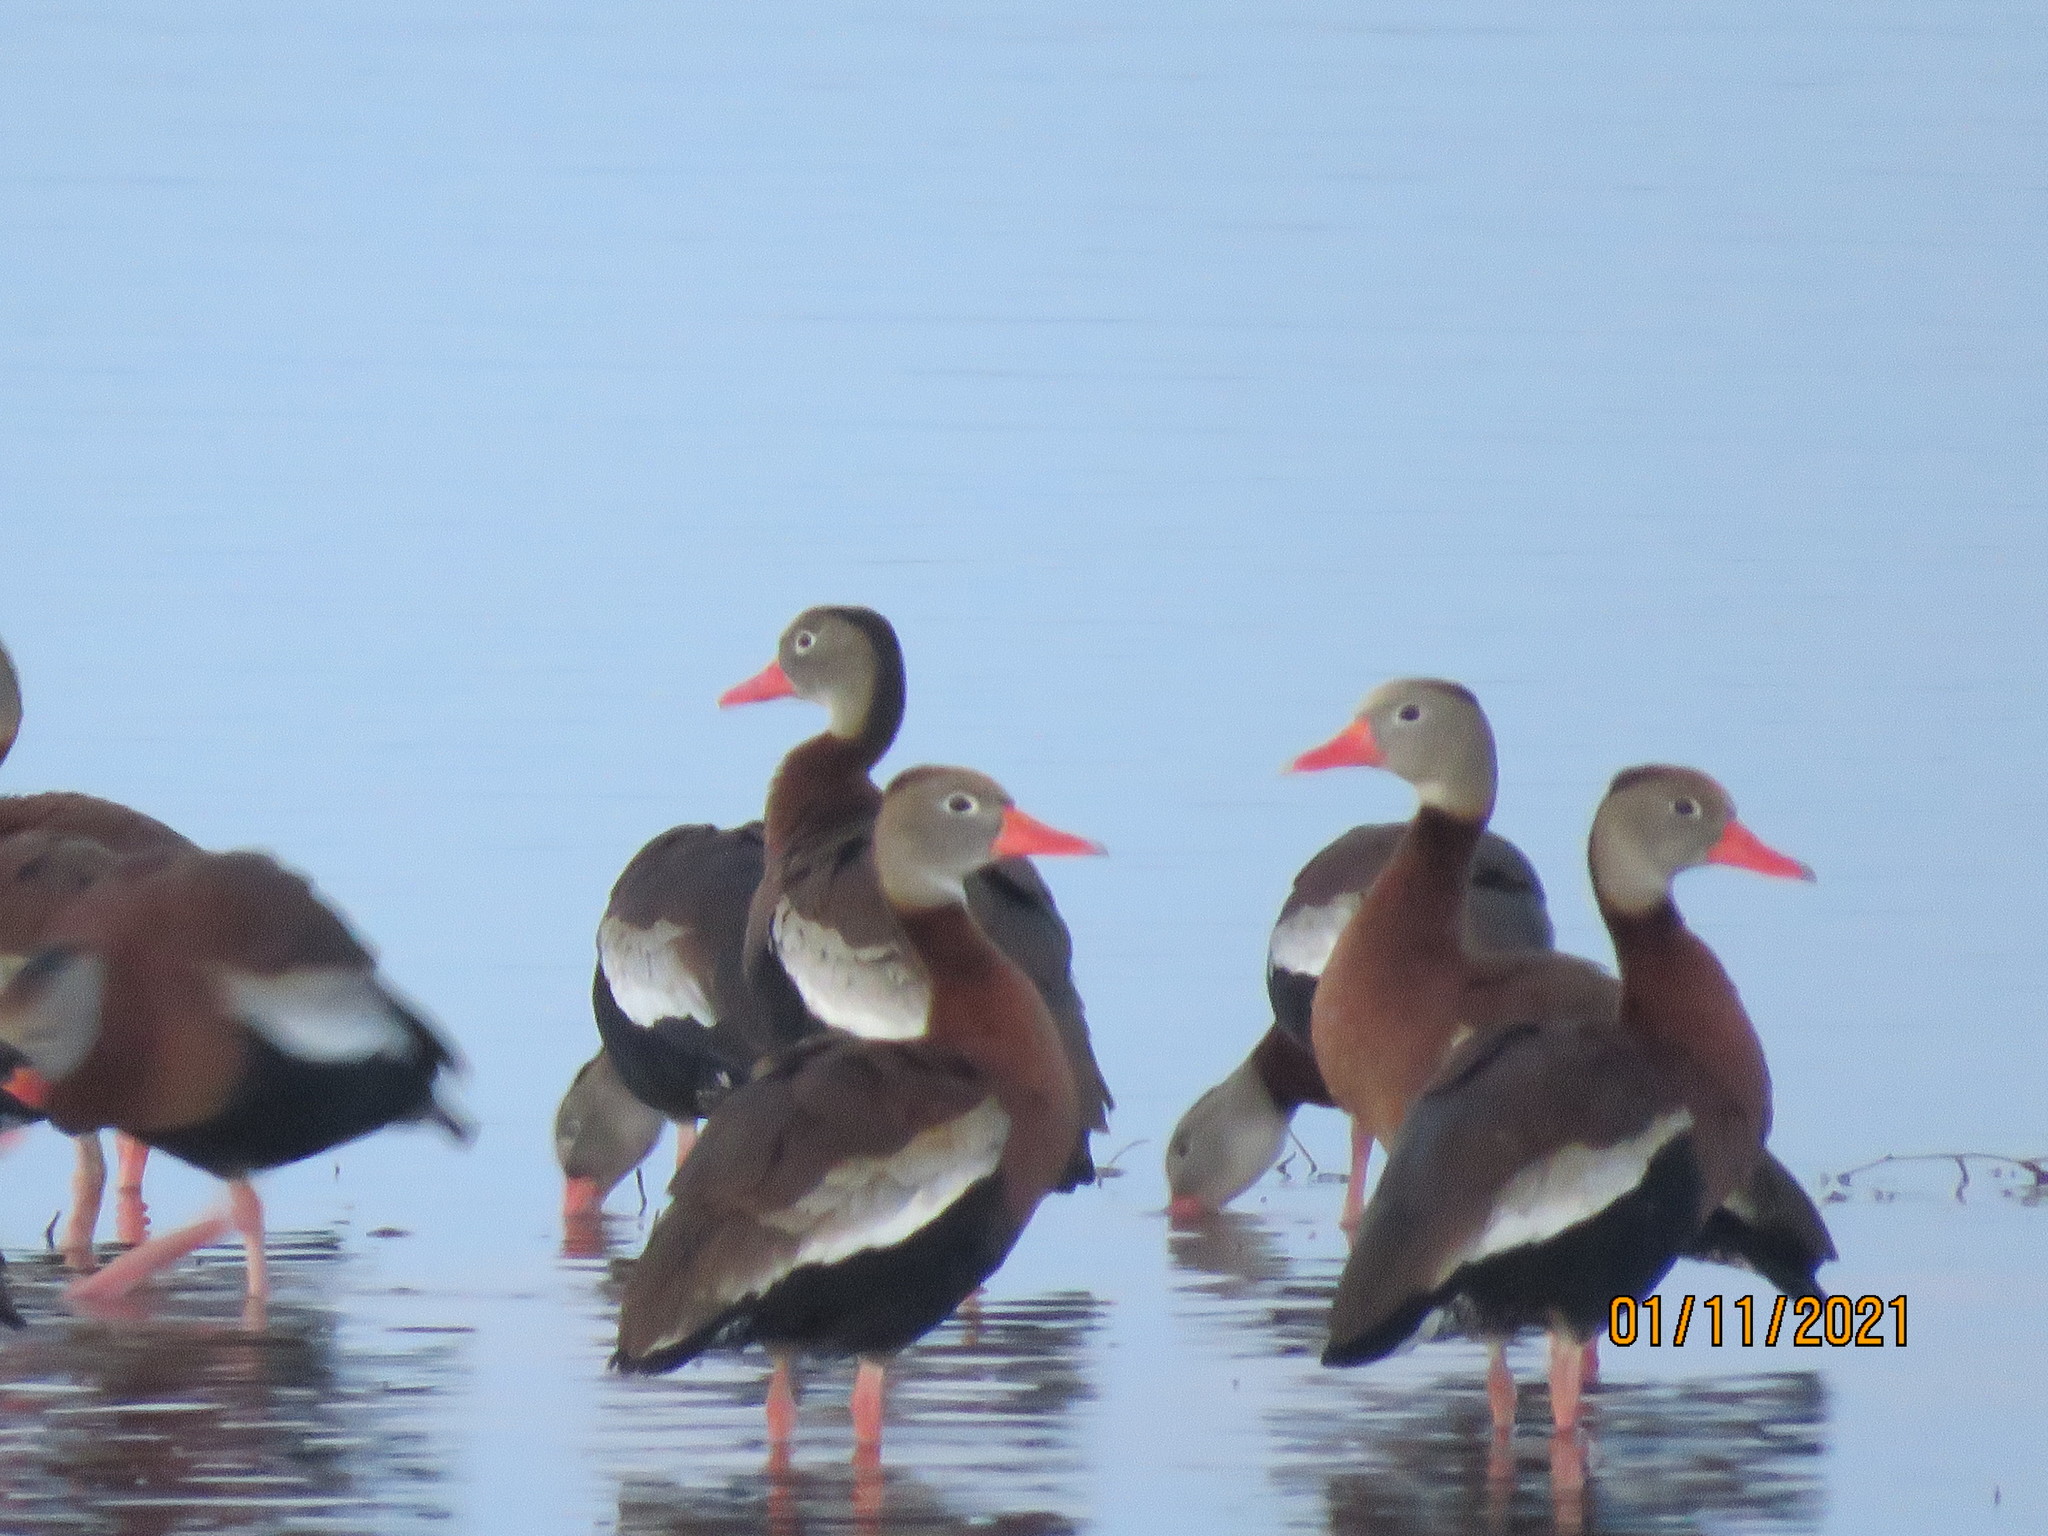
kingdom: Animalia
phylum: Chordata
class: Aves
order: Anseriformes
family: Anatidae
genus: Dendrocygna
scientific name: Dendrocygna autumnalis
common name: Black-bellied whistling duck
